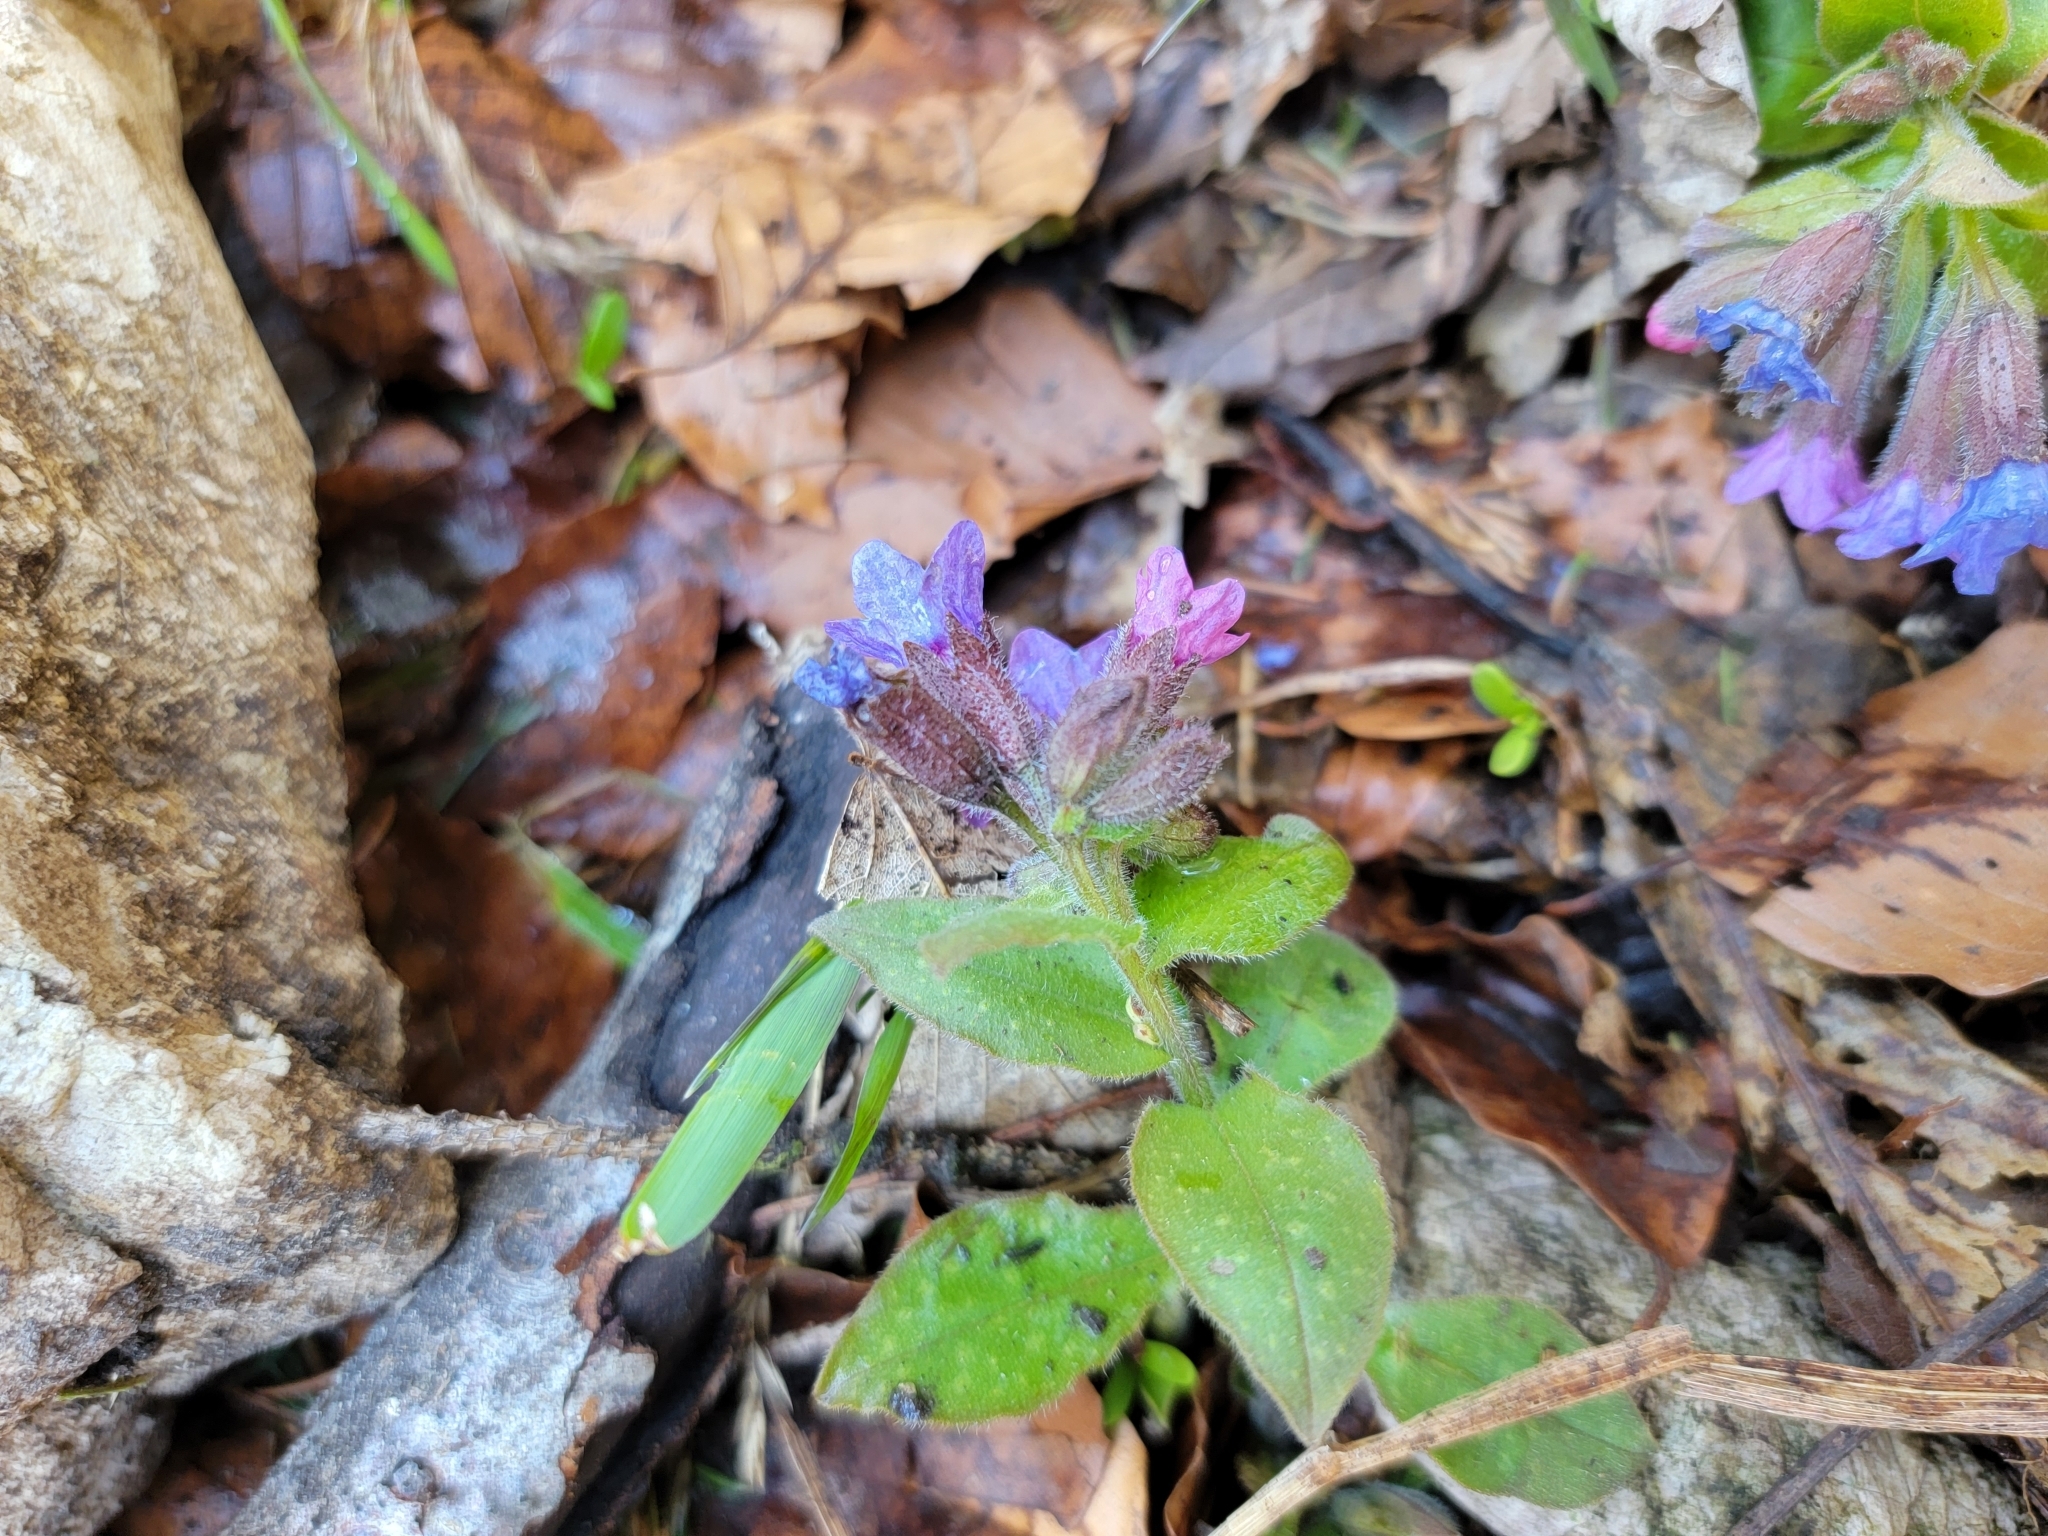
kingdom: Plantae
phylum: Tracheophyta
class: Magnoliopsida
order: Boraginales
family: Boraginaceae
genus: Pulmonaria
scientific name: Pulmonaria officinalis
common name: Lungwort
